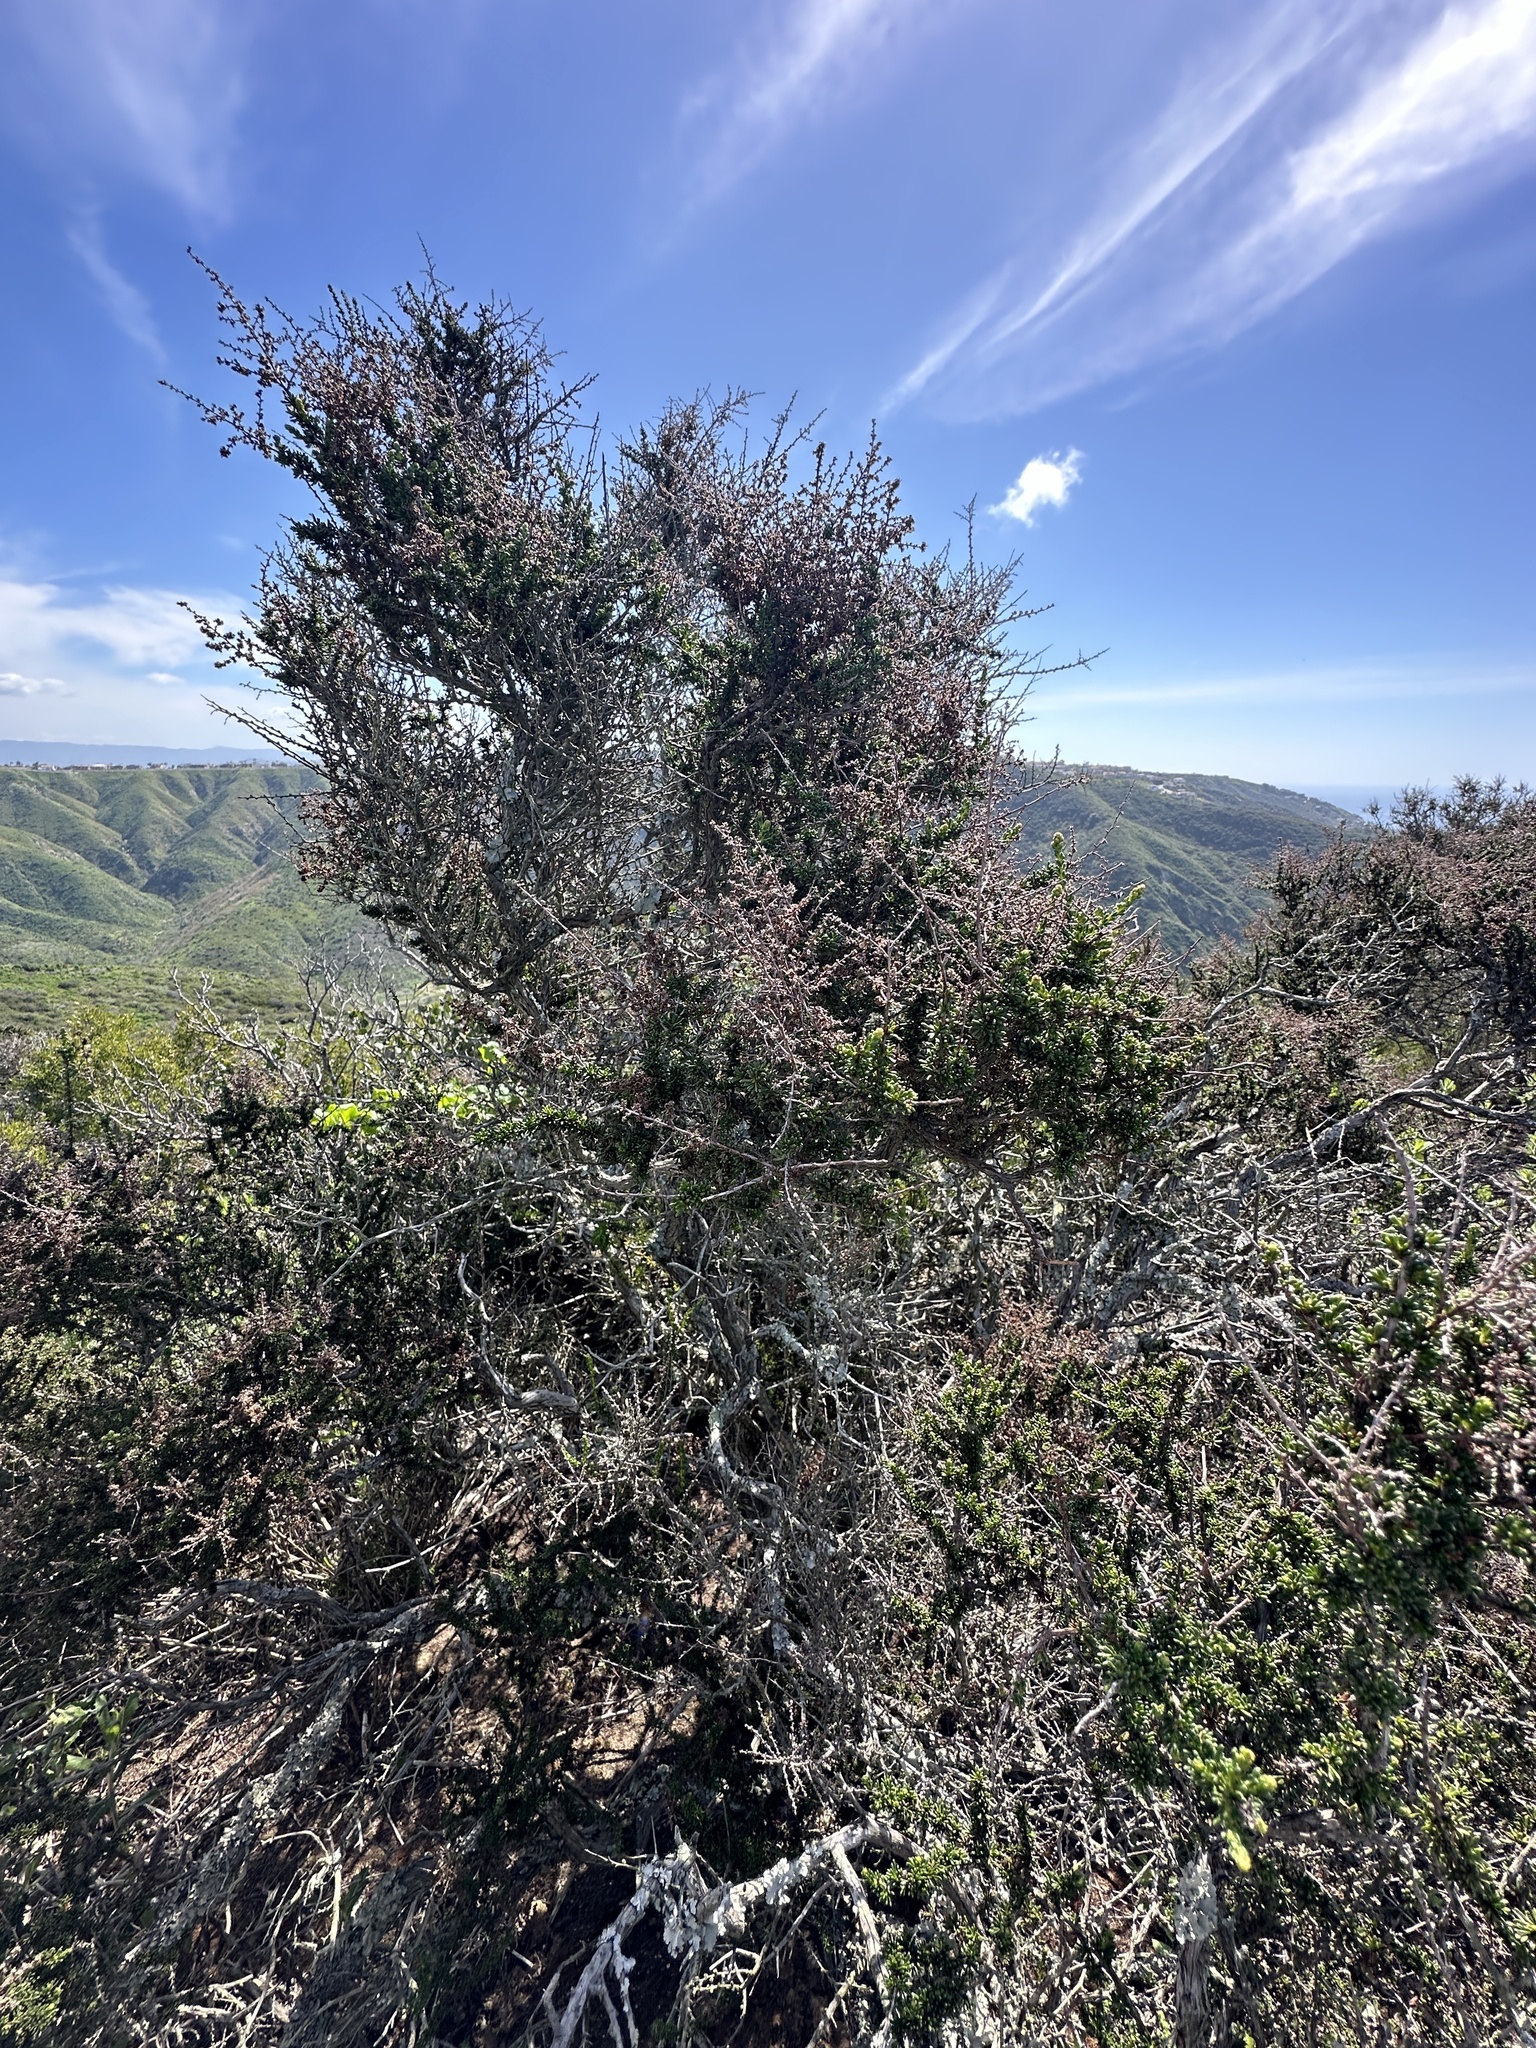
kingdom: Plantae
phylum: Tracheophyta
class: Magnoliopsida
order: Rosales
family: Rosaceae
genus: Adenostoma
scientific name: Adenostoma fasciculatum
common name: Chamise
